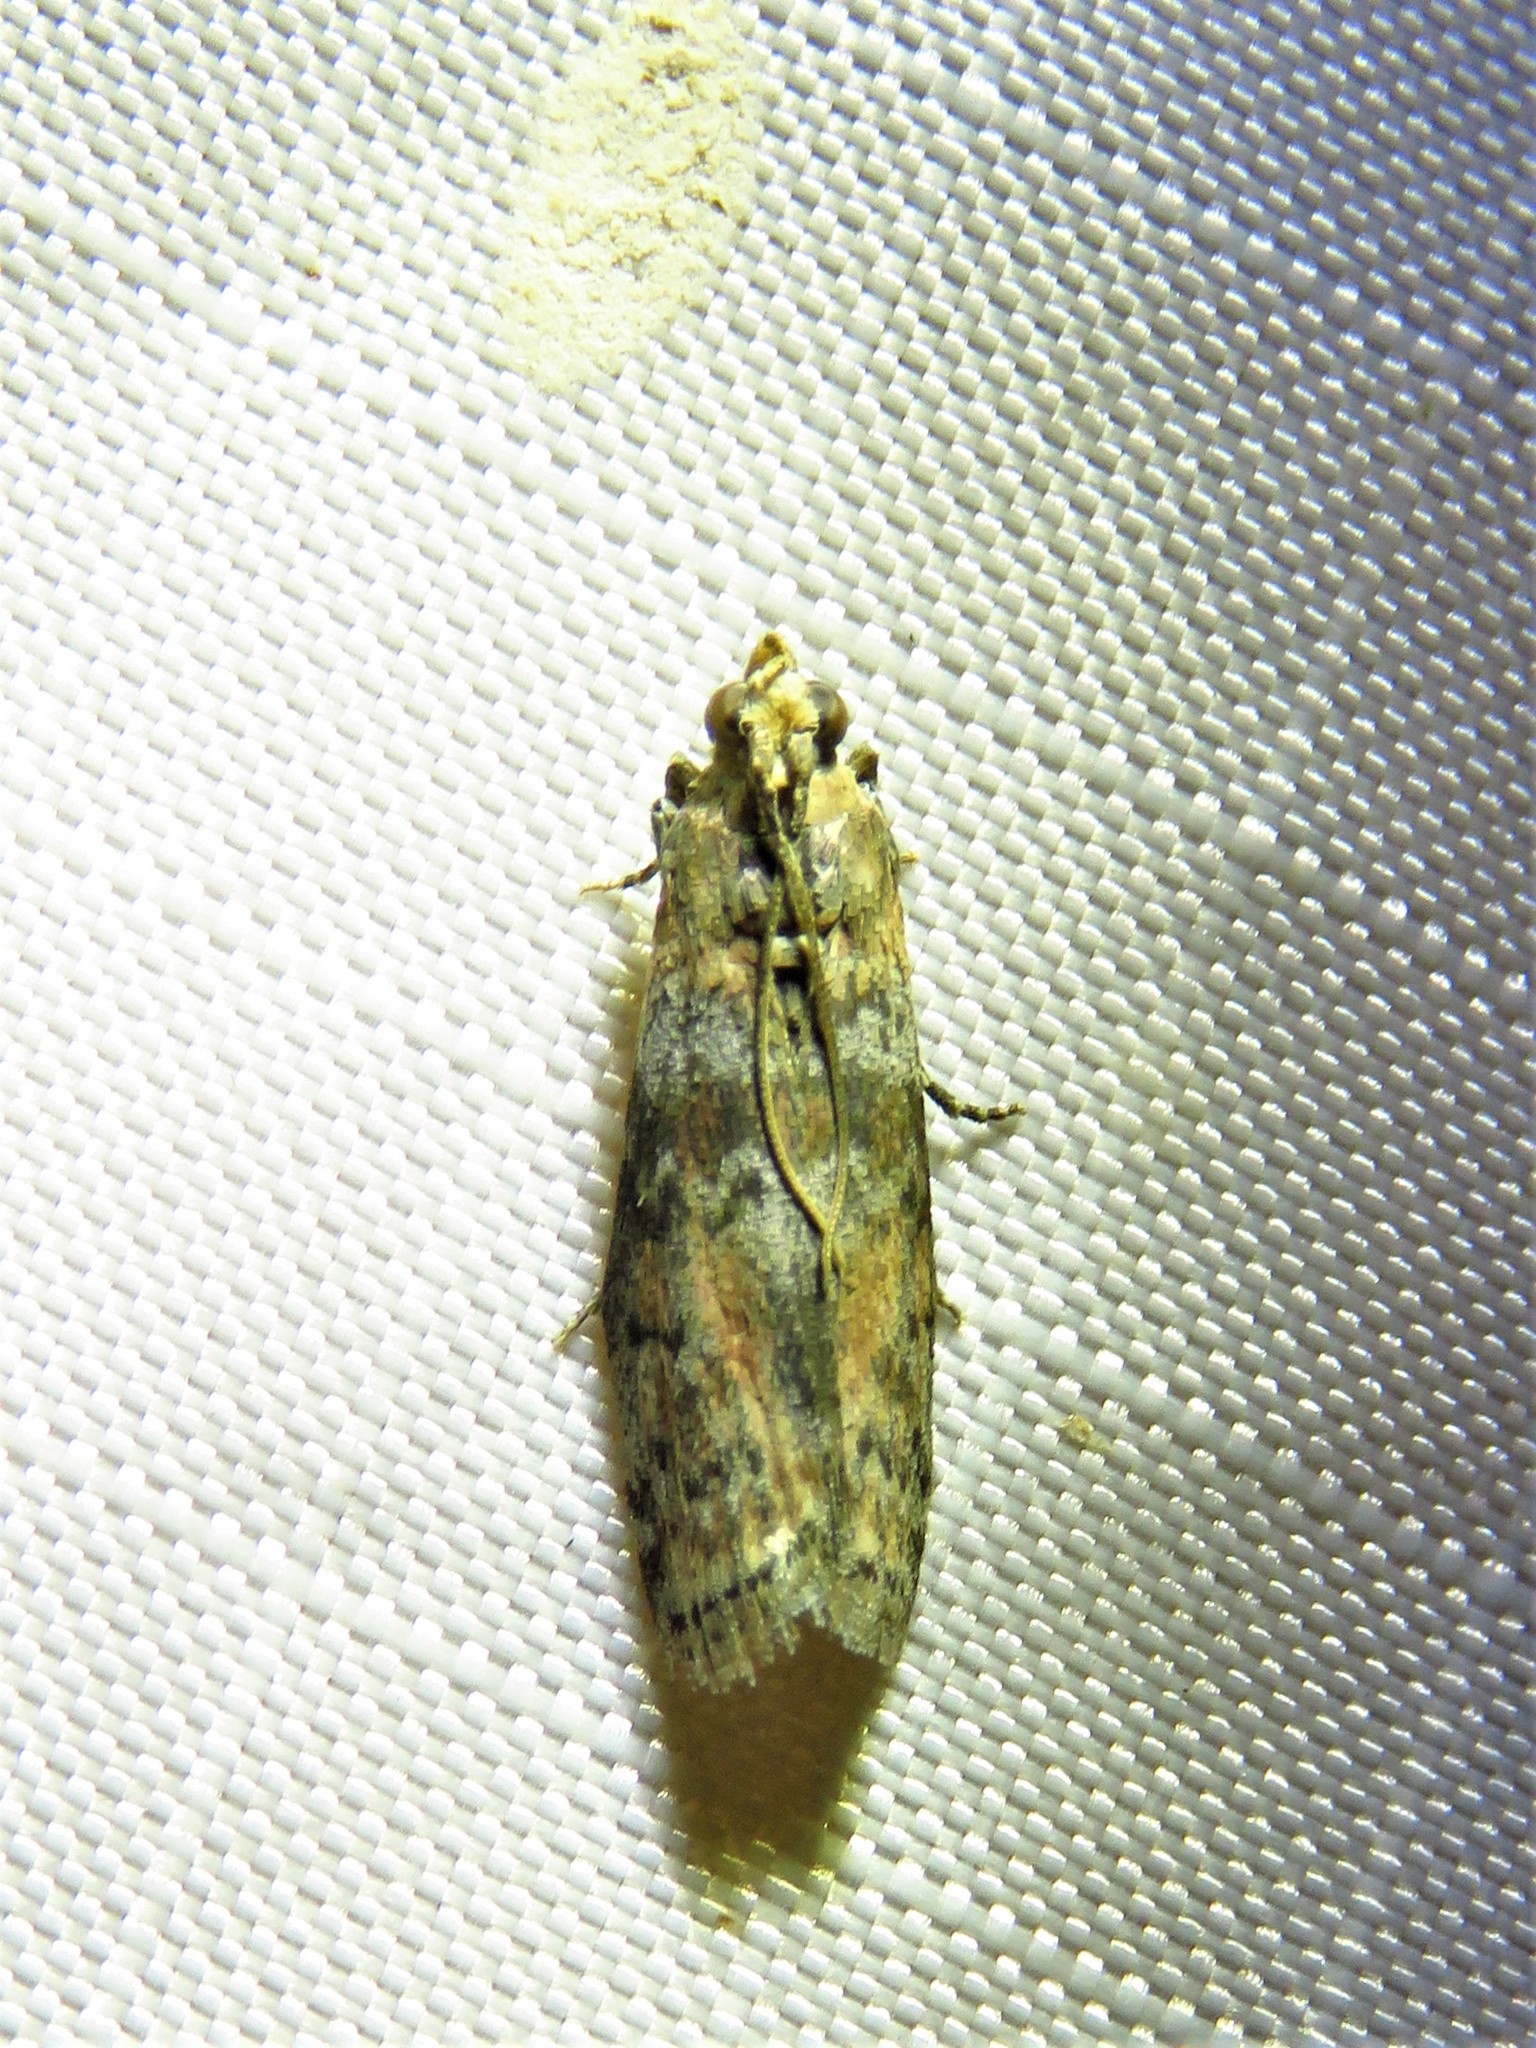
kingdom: Animalia
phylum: Arthropoda
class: Insecta
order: Lepidoptera
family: Pyralidae
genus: Sciota
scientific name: Sciota celtidella
